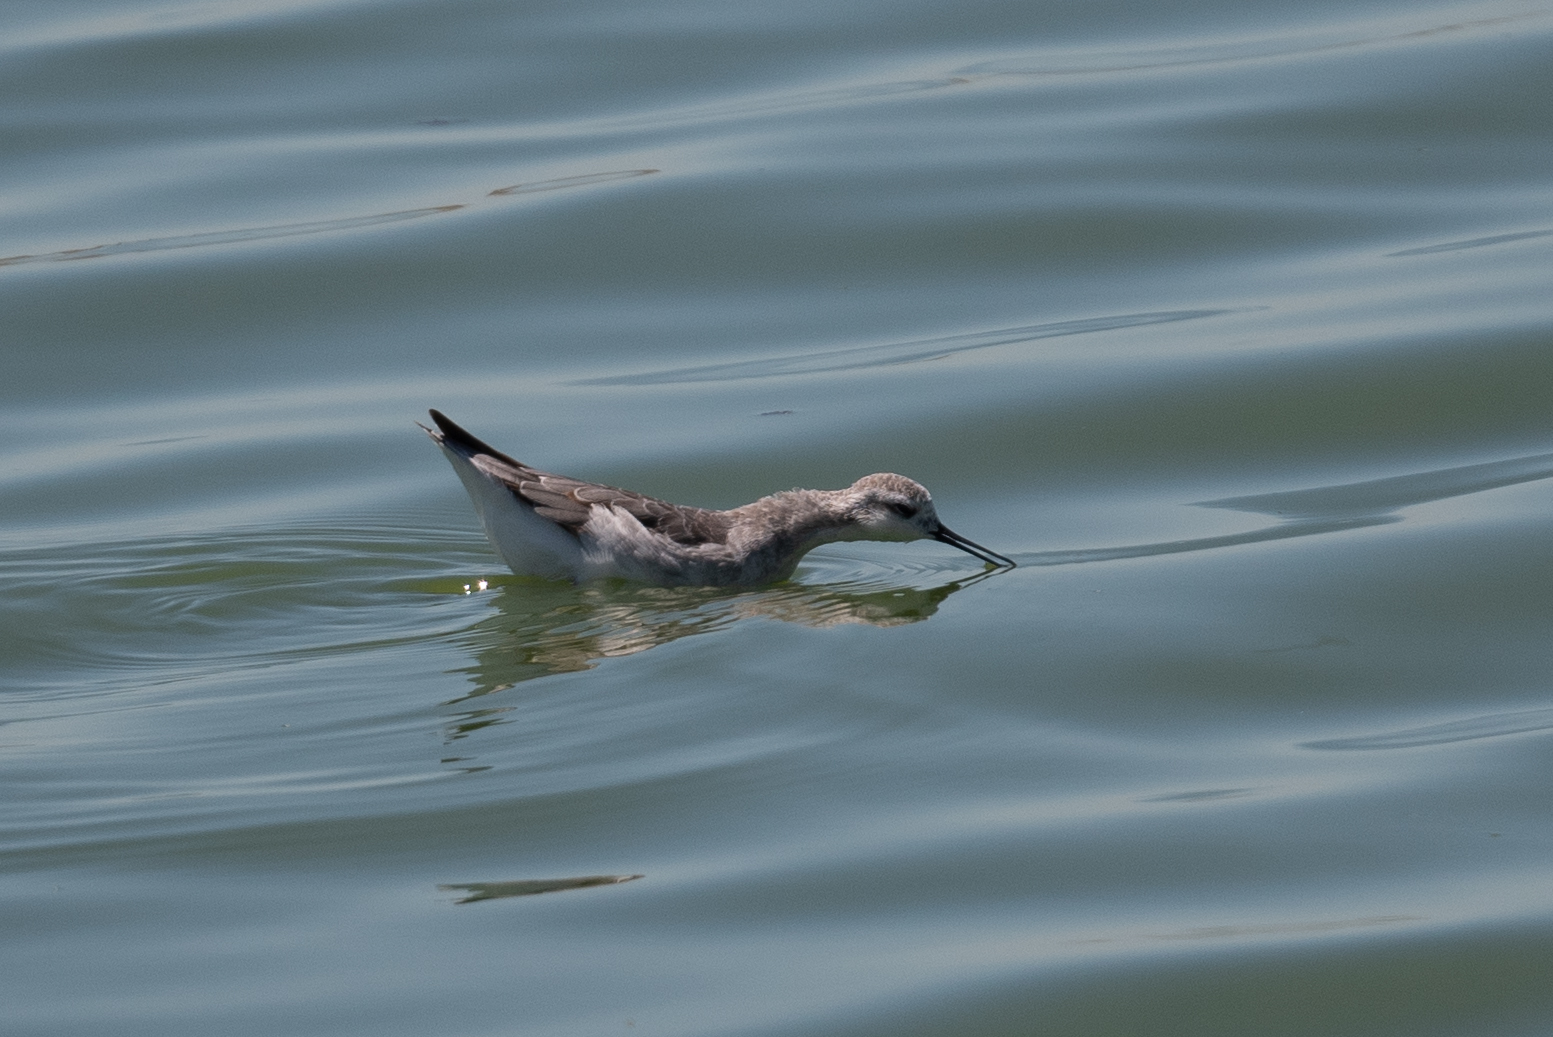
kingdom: Animalia
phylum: Chordata
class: Aves
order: Charadriiformes
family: Scolopacidae
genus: Phalaropus
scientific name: Phalaropus tricolor
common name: Wilson's phalarope
